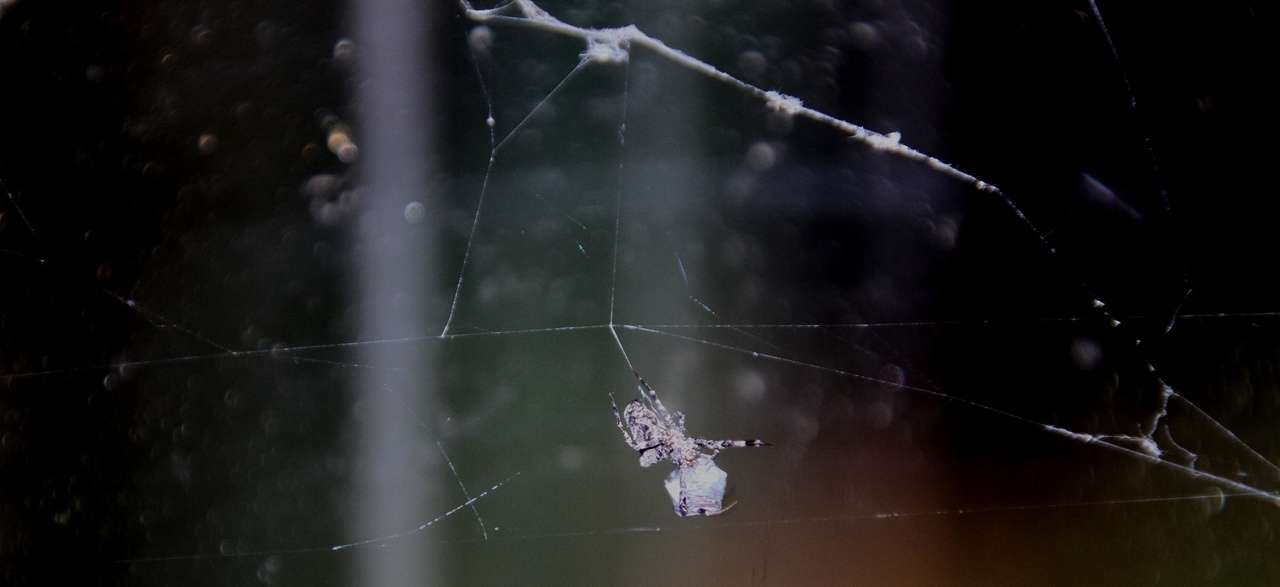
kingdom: Animalia
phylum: Arthropoda
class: Arachnida
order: Araneae
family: Uloboridae
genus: Philoponella
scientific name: Philoponella congregabilis
